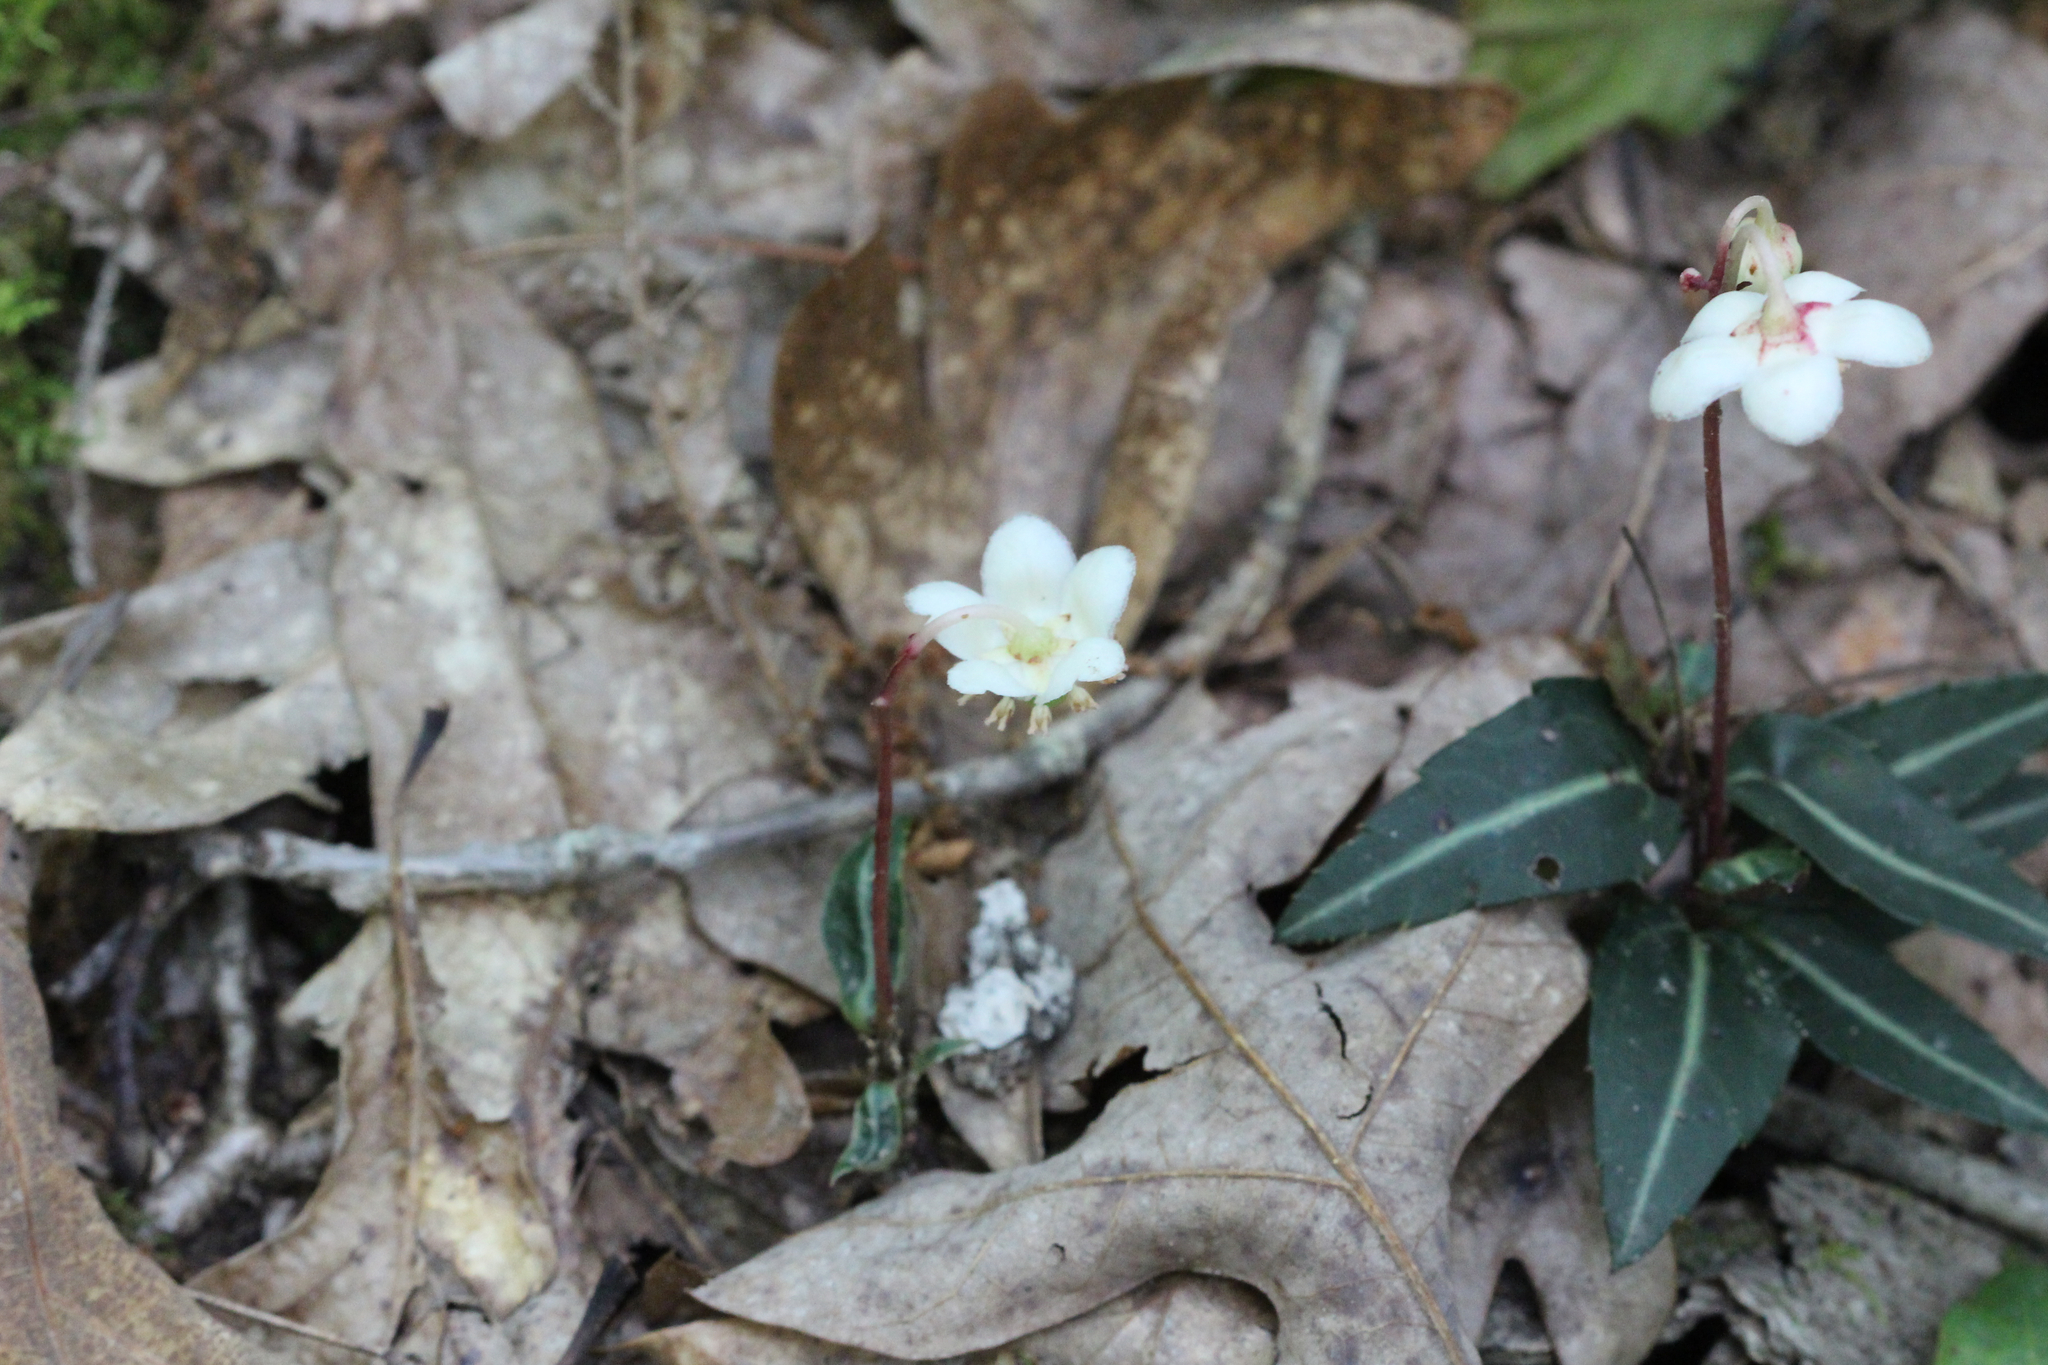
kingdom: Plantae
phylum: Tracheophyta
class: Magnoliopsida
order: Ericales
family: Ericaceae
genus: Chimaphila
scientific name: Chimaphila maculata
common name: Spotted pipsissewa
